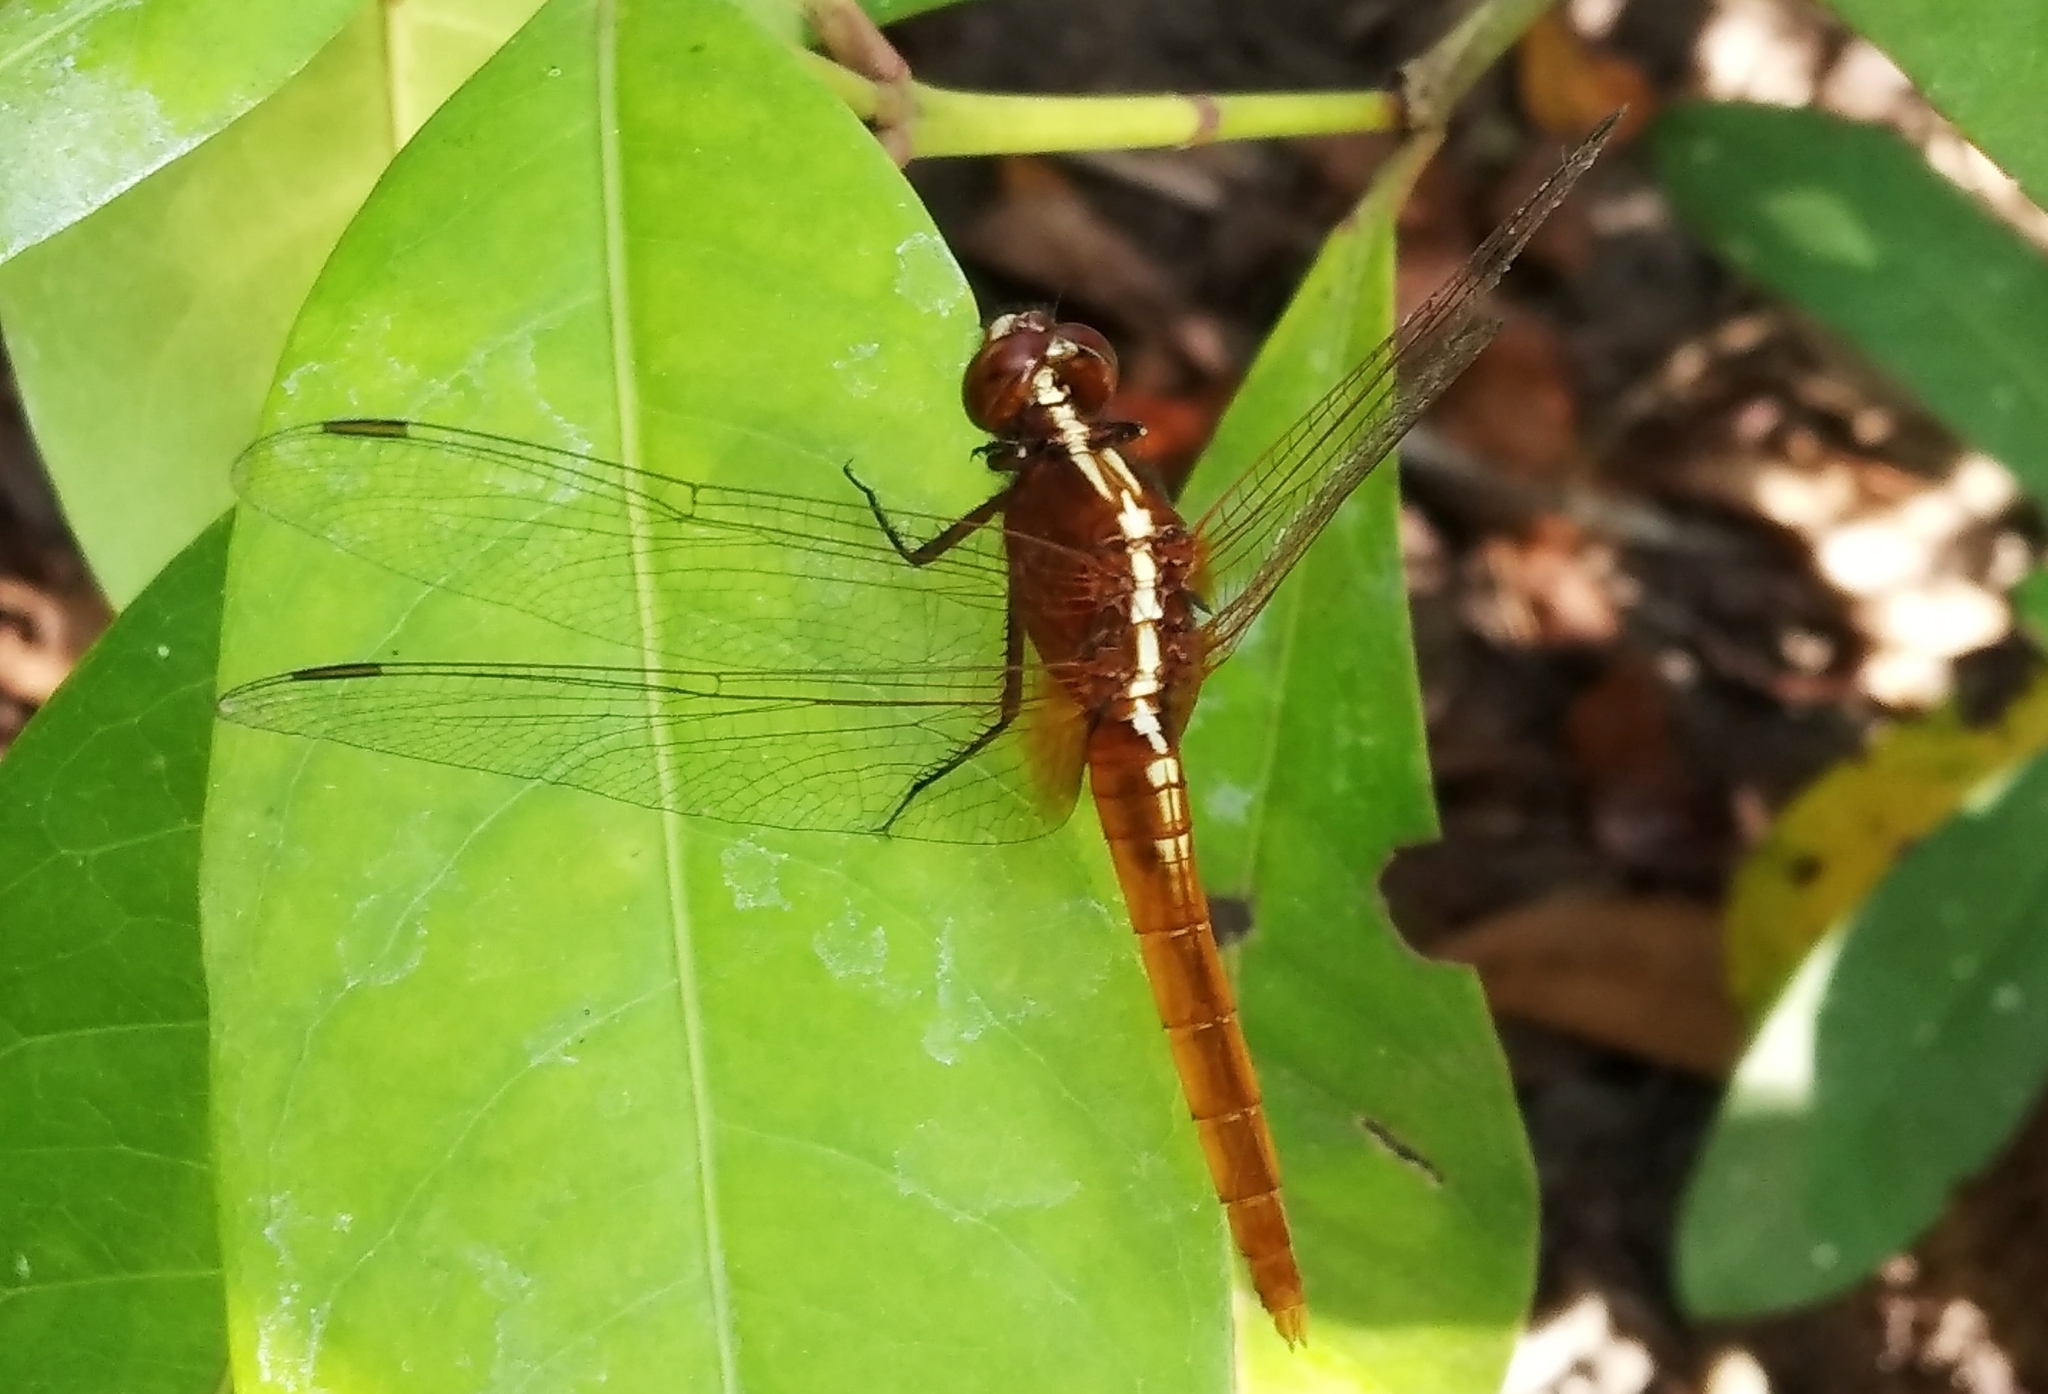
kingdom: Animalia
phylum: Arthropoda
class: Insecta
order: Odonata
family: Libellulidae
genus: Rhodothemis
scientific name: Rhodothemis rufa
